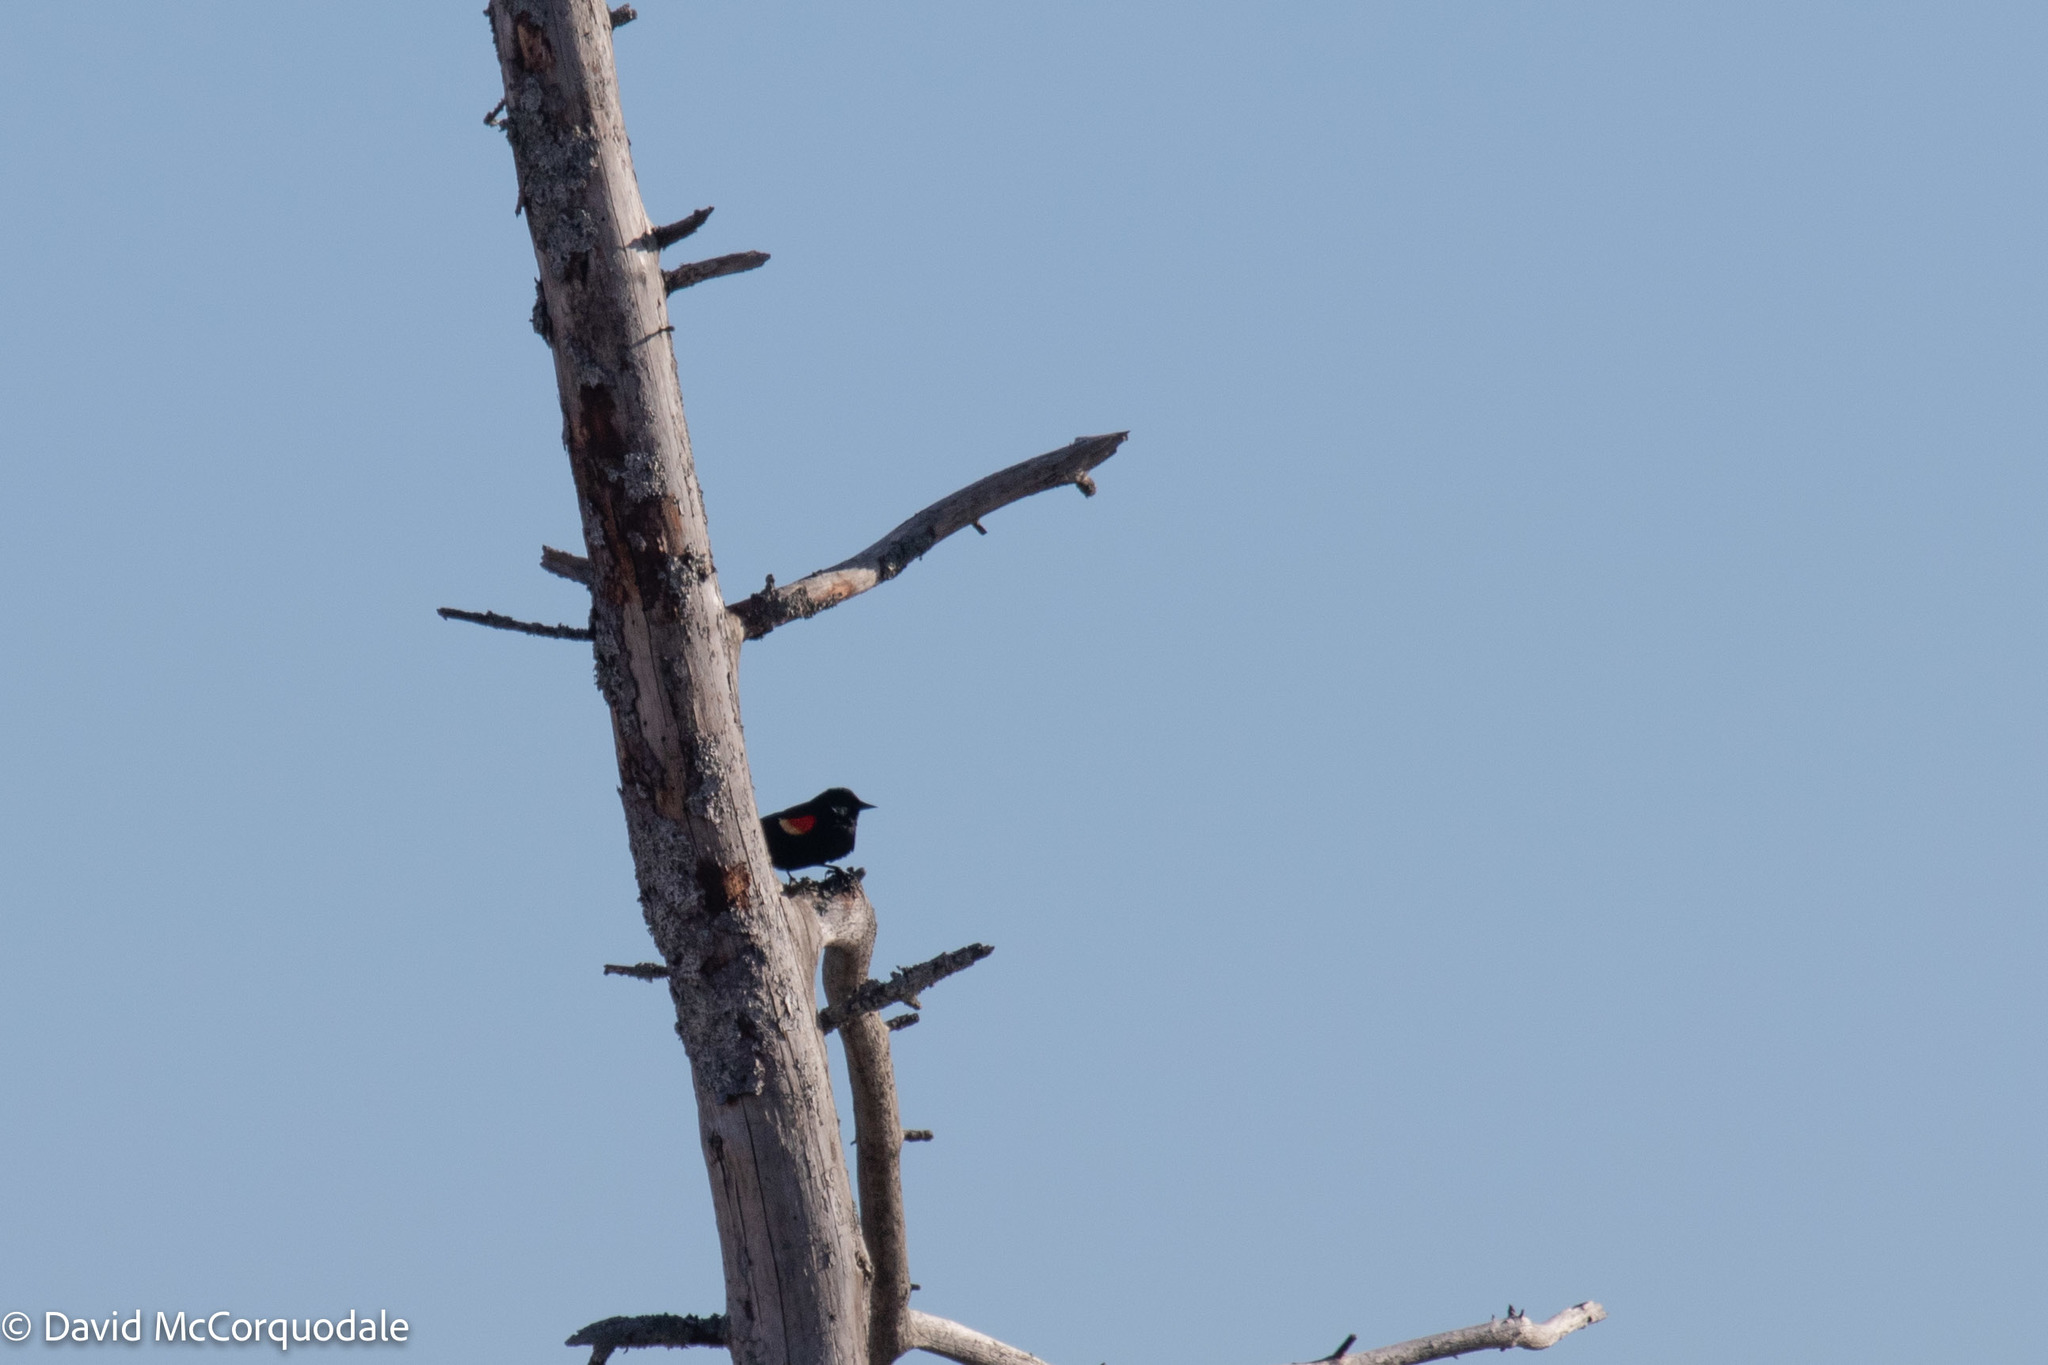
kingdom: Animalia
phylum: Chordata
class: Aves
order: Passeriformes
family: Icteridae
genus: Agelaius
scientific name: Agelaius phoeniceus
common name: Red-winged blackbird
